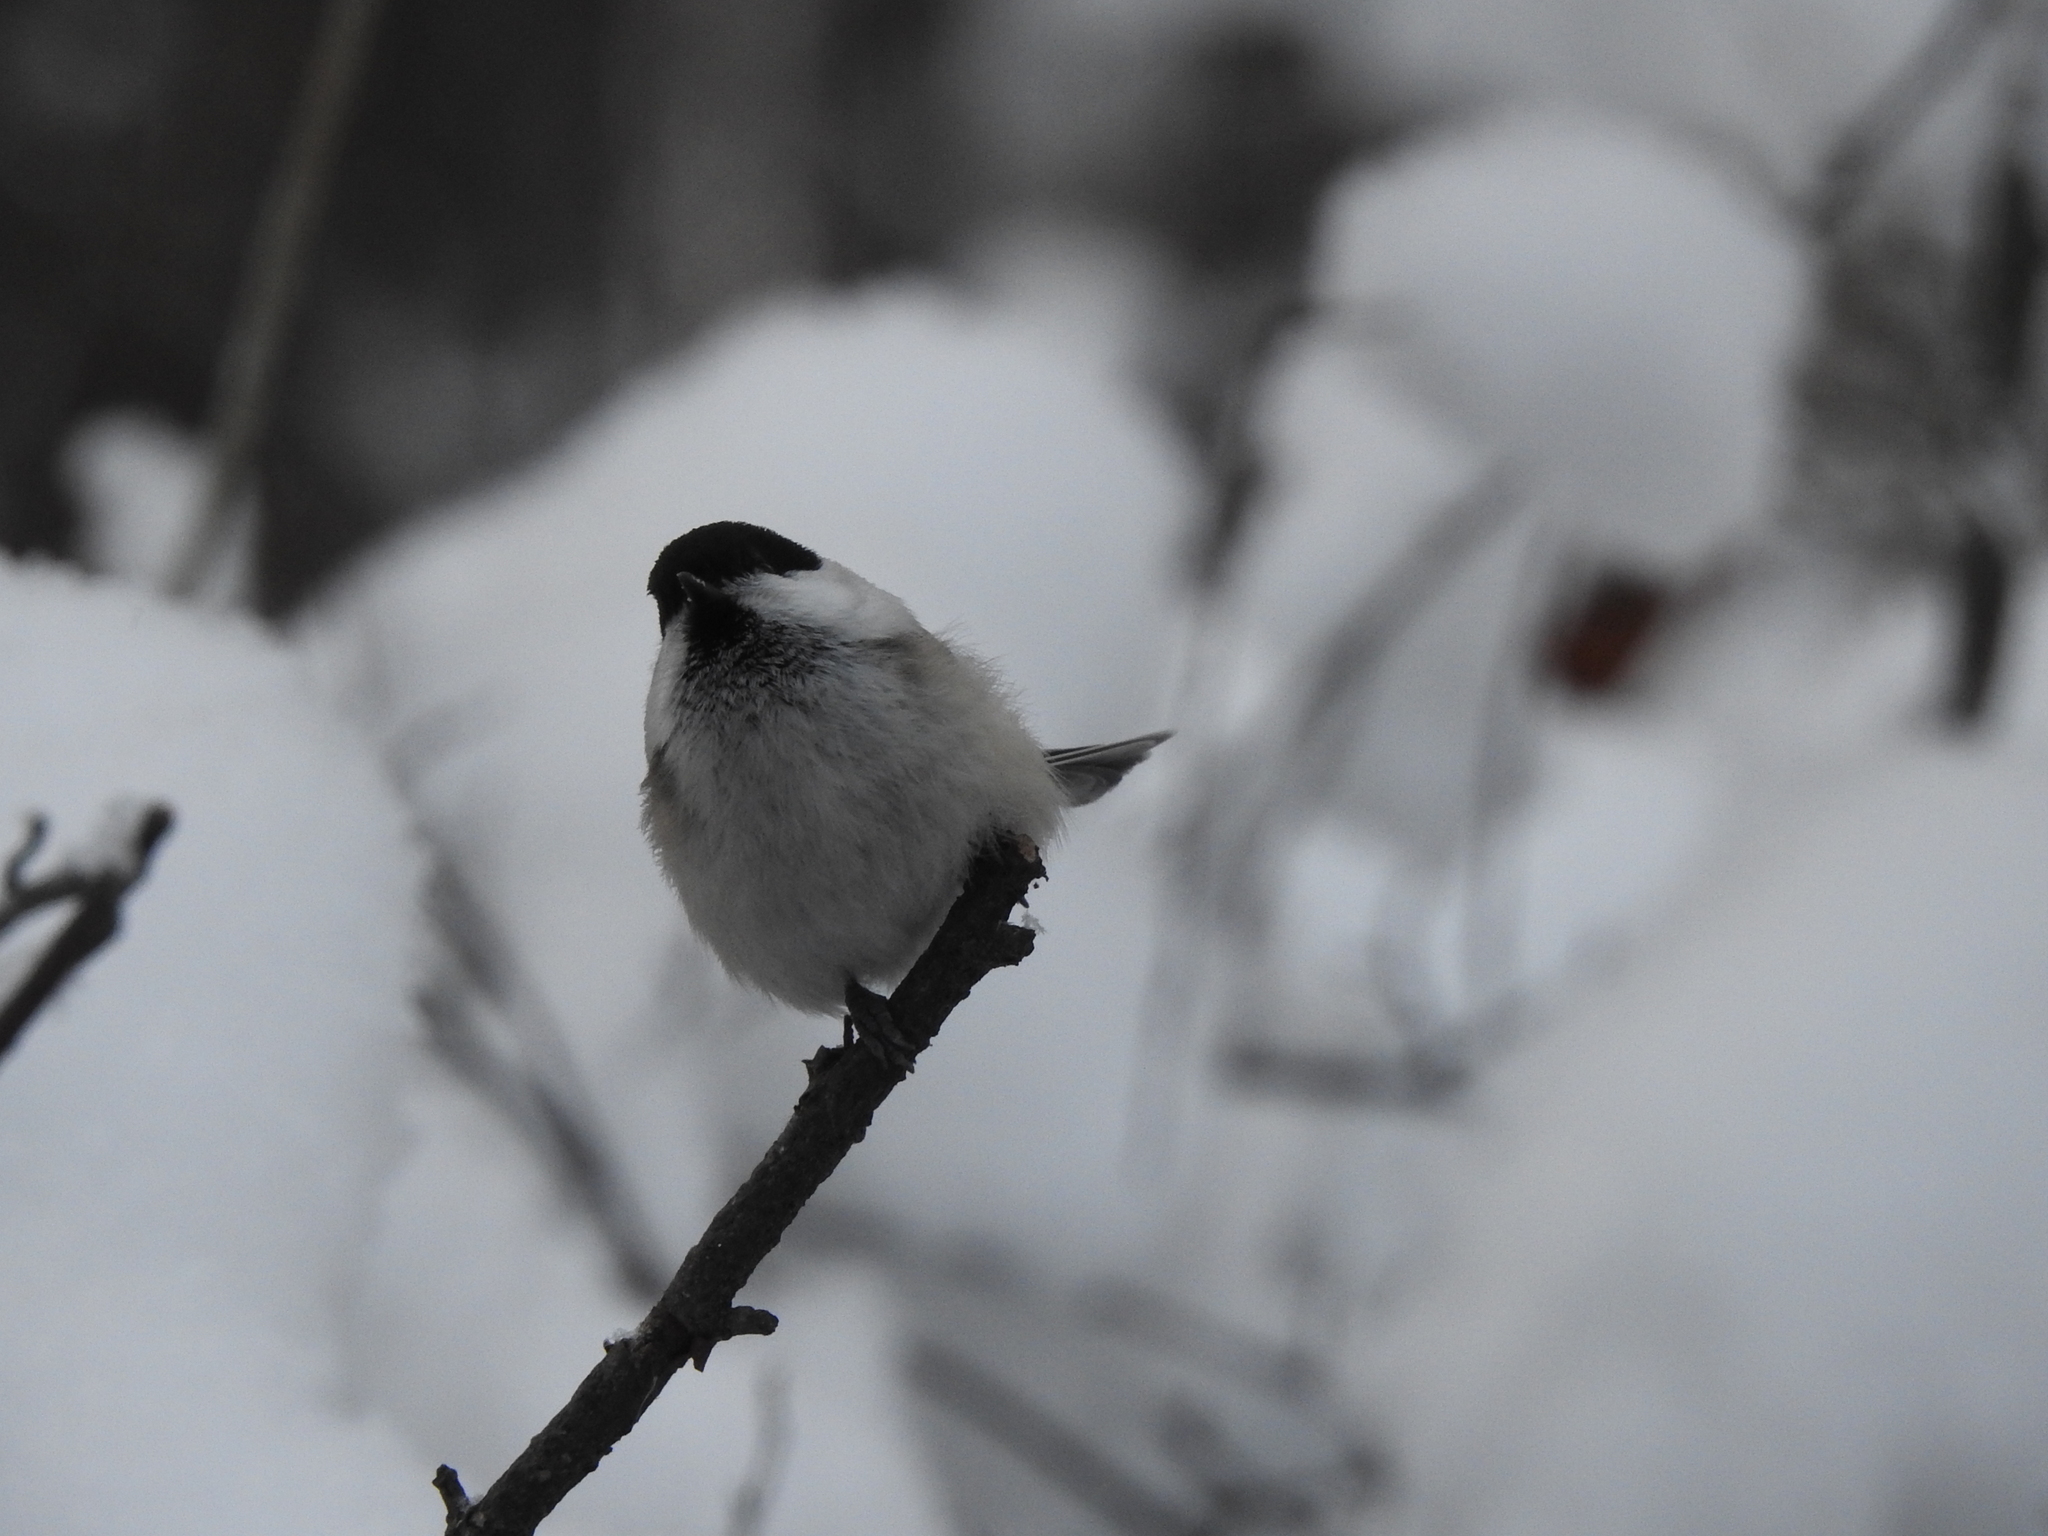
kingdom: Animalia
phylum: Chordata
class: Aves
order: Passeriformes
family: Paridae
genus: Poecile
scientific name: Poecile montanus
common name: Willow tit
